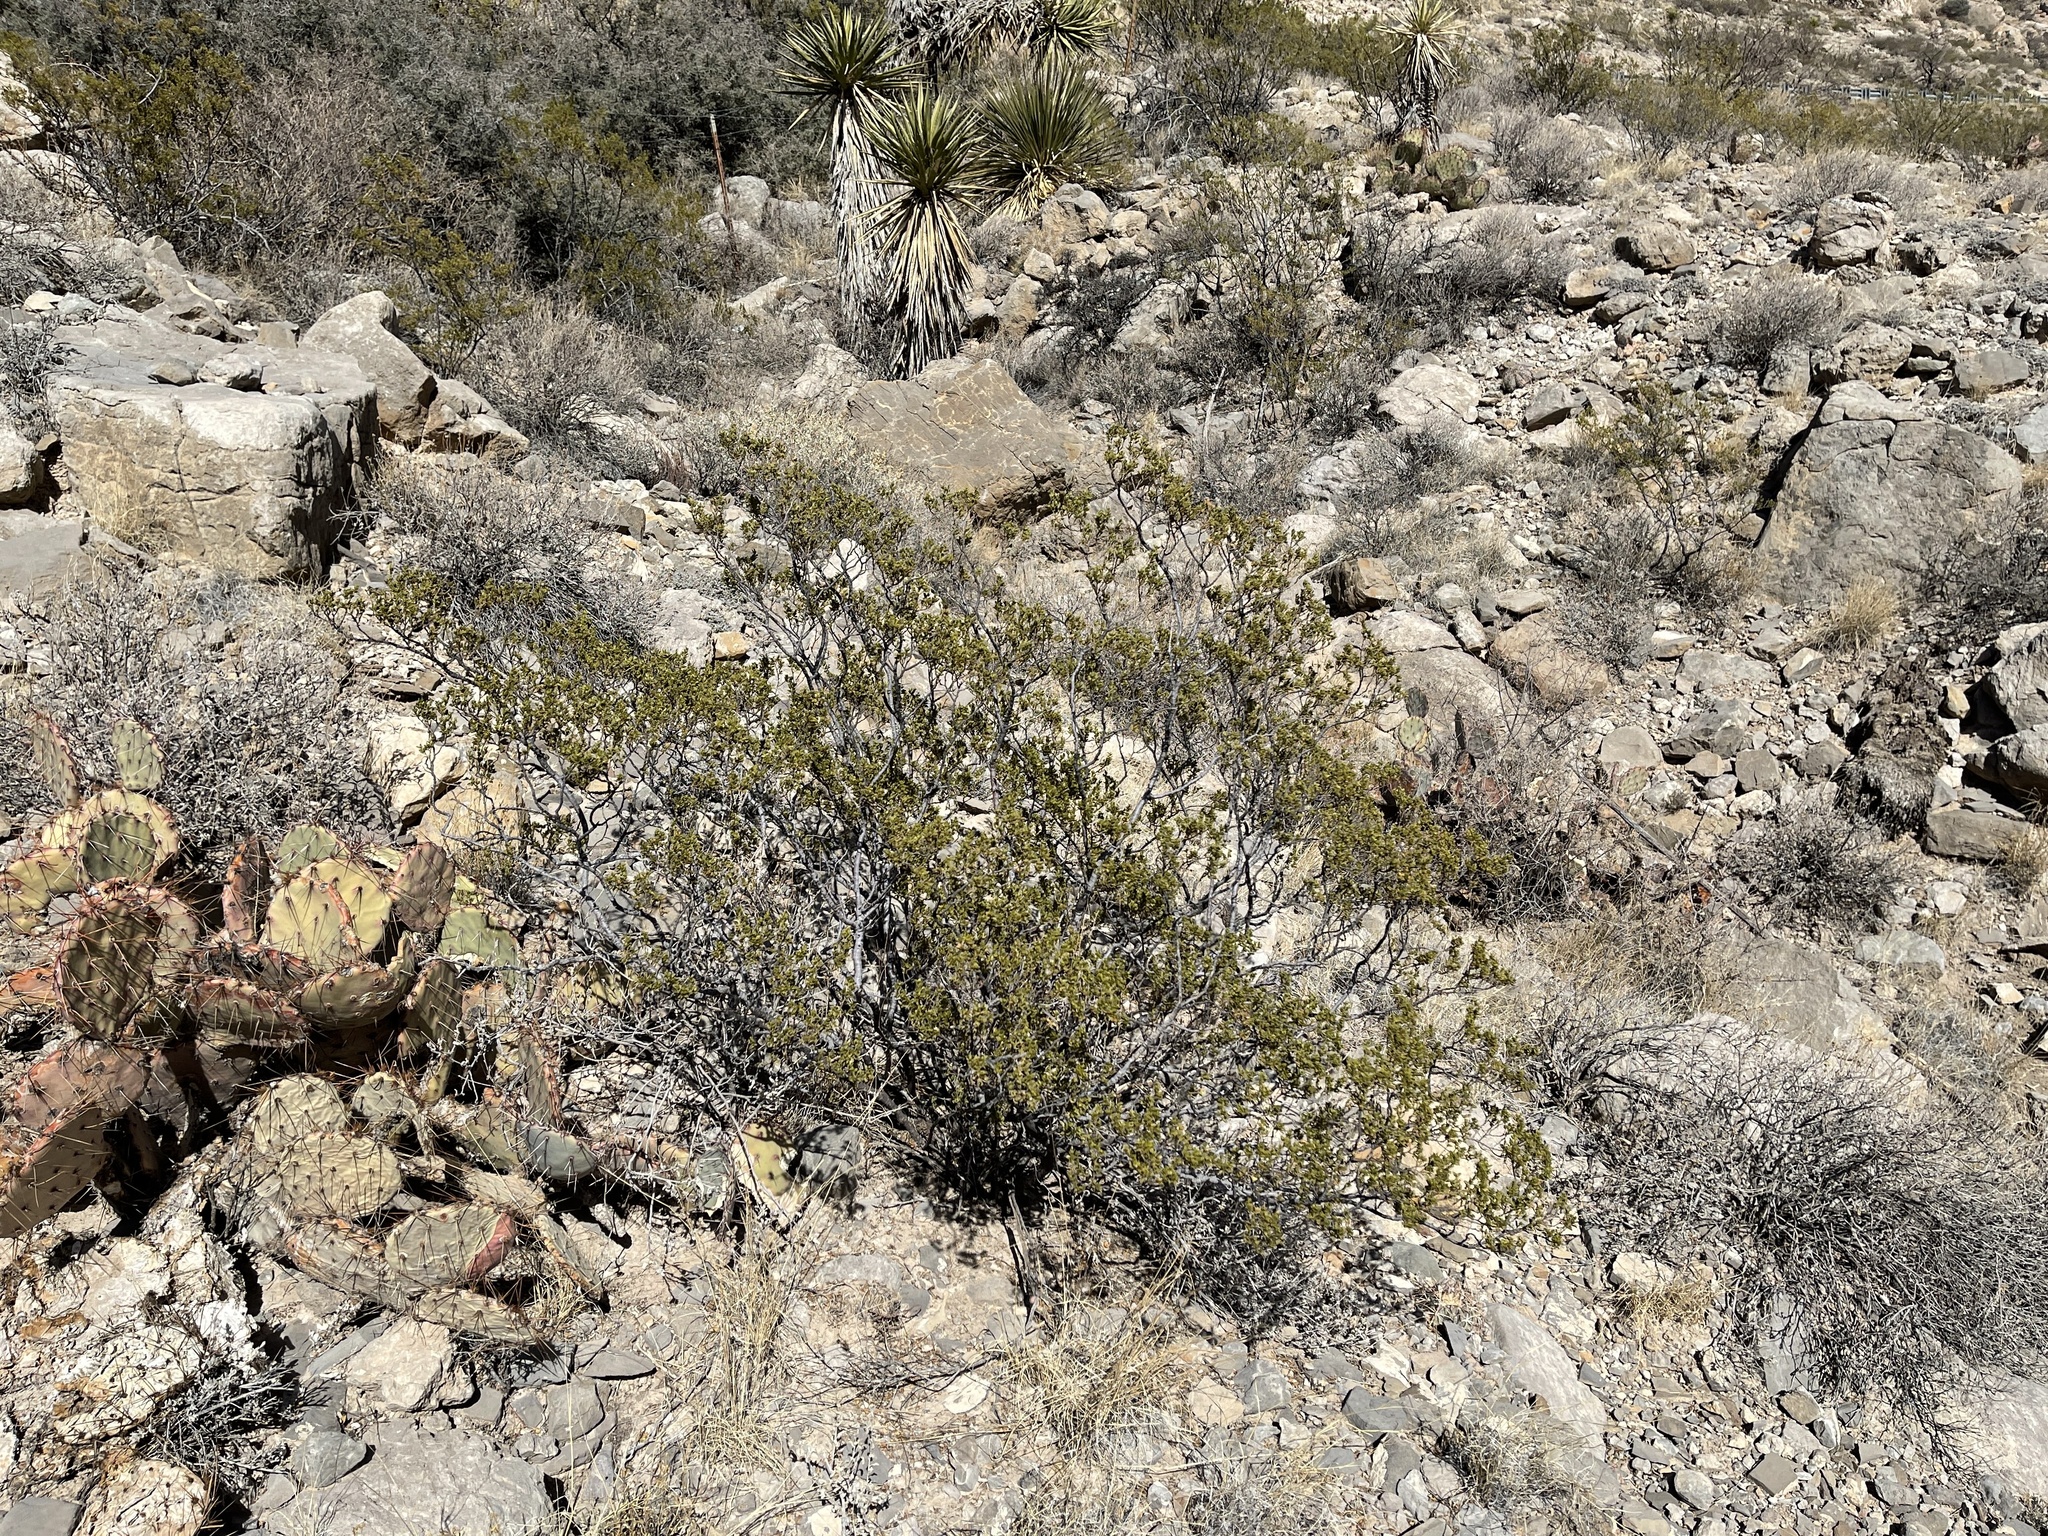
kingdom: Plantae
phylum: Tracheophyta
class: Magnoliopsida
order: Zygophyllales
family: Zygophyllaceae
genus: Larrea
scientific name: Larrea tridentata
